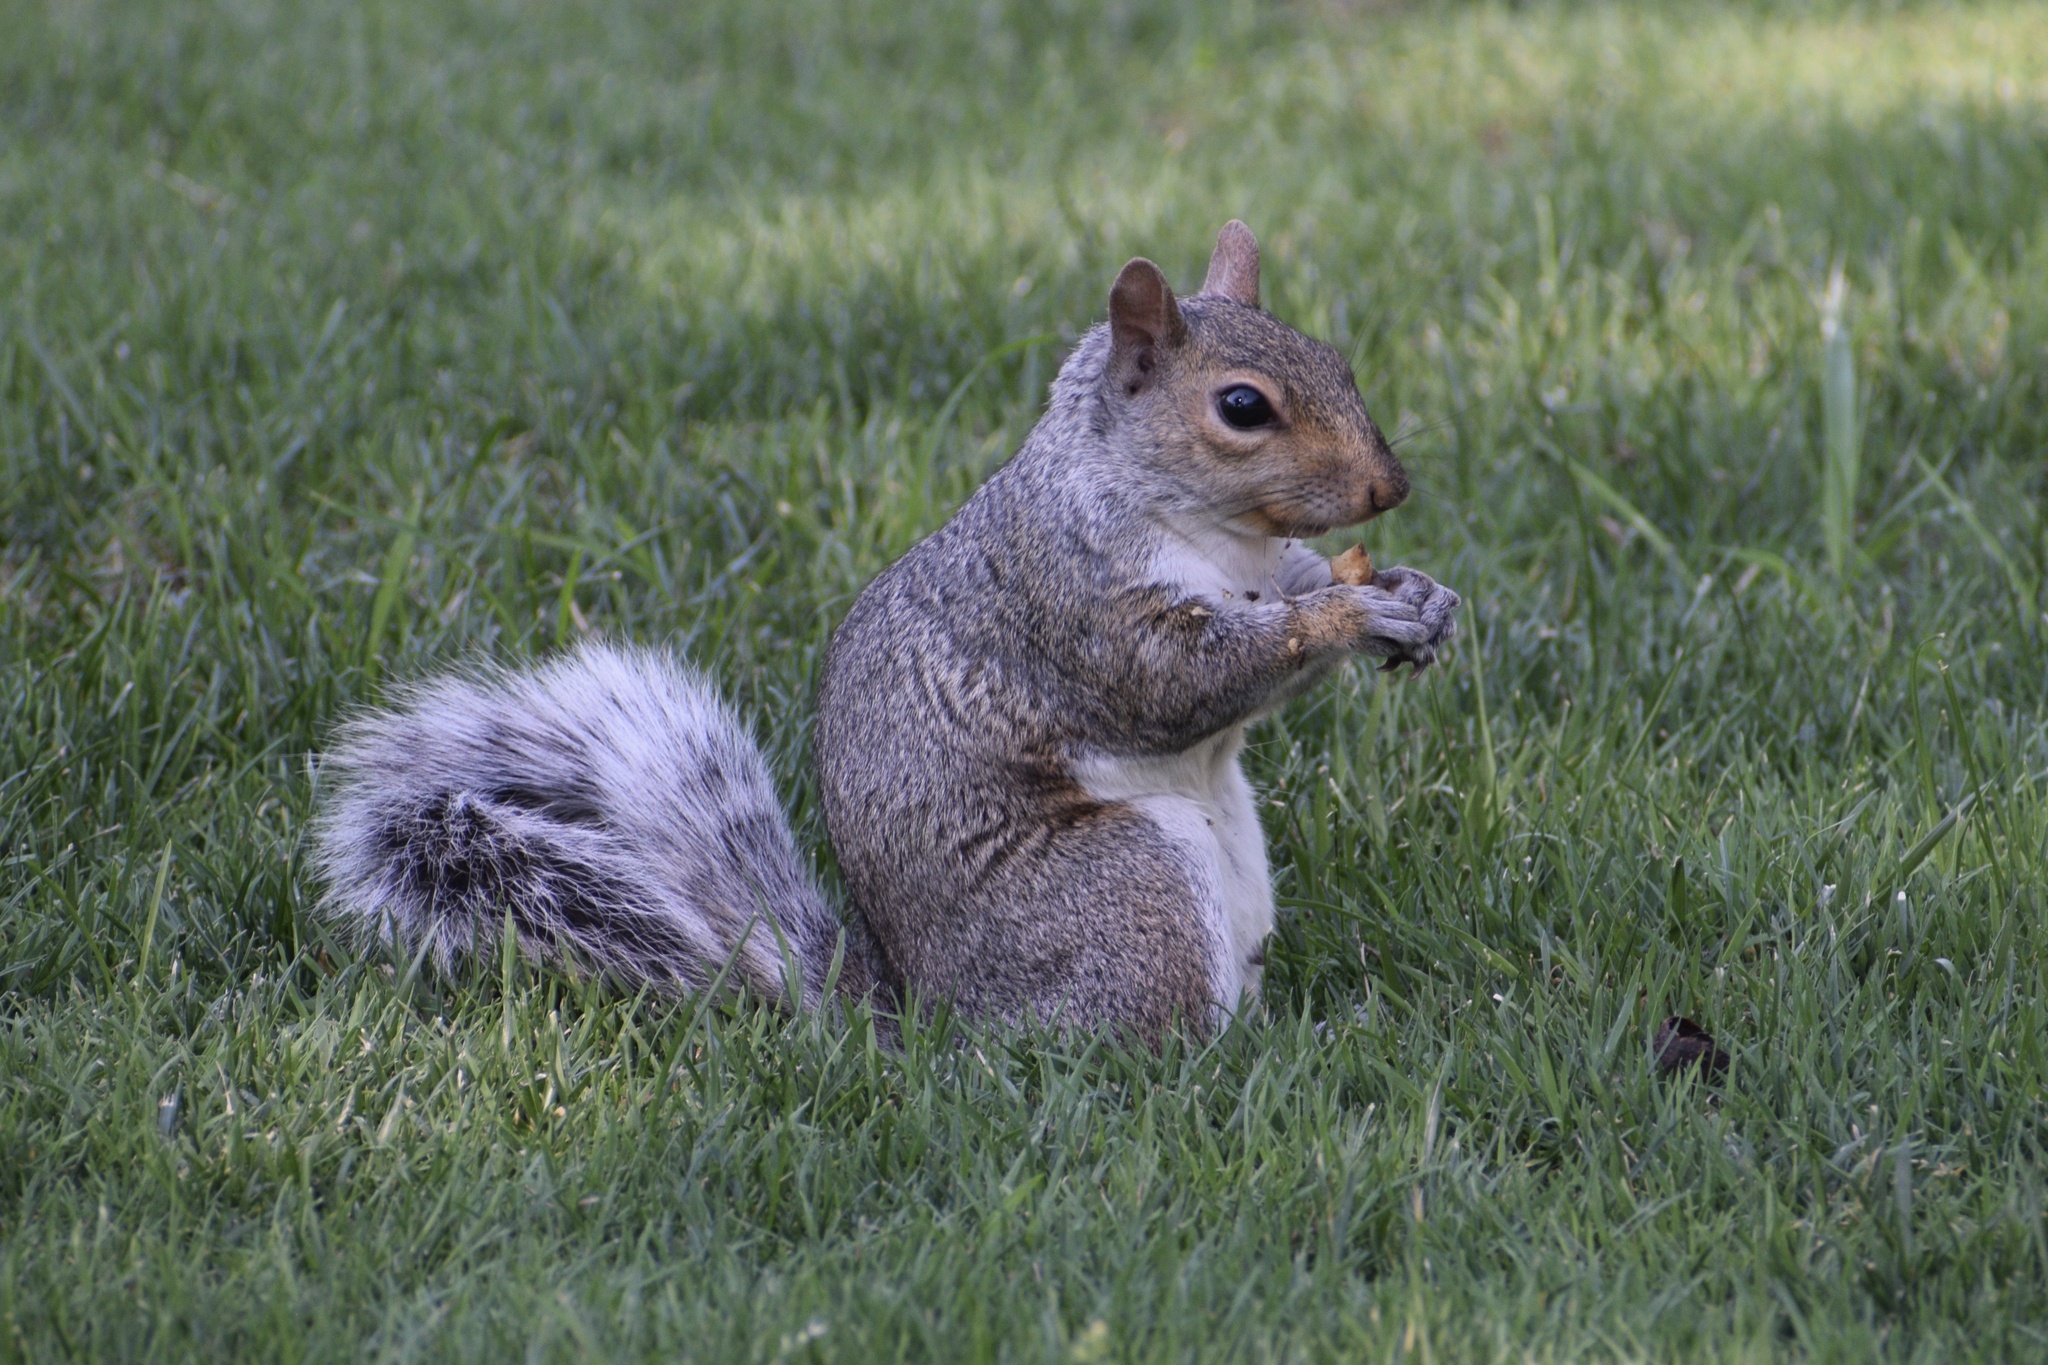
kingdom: Animalia
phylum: Chordata
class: Mammalia
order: Rodentia
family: Sciuridae
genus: Sciurus
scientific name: Sciurus carolinensis
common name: Eastern gray squirrel
